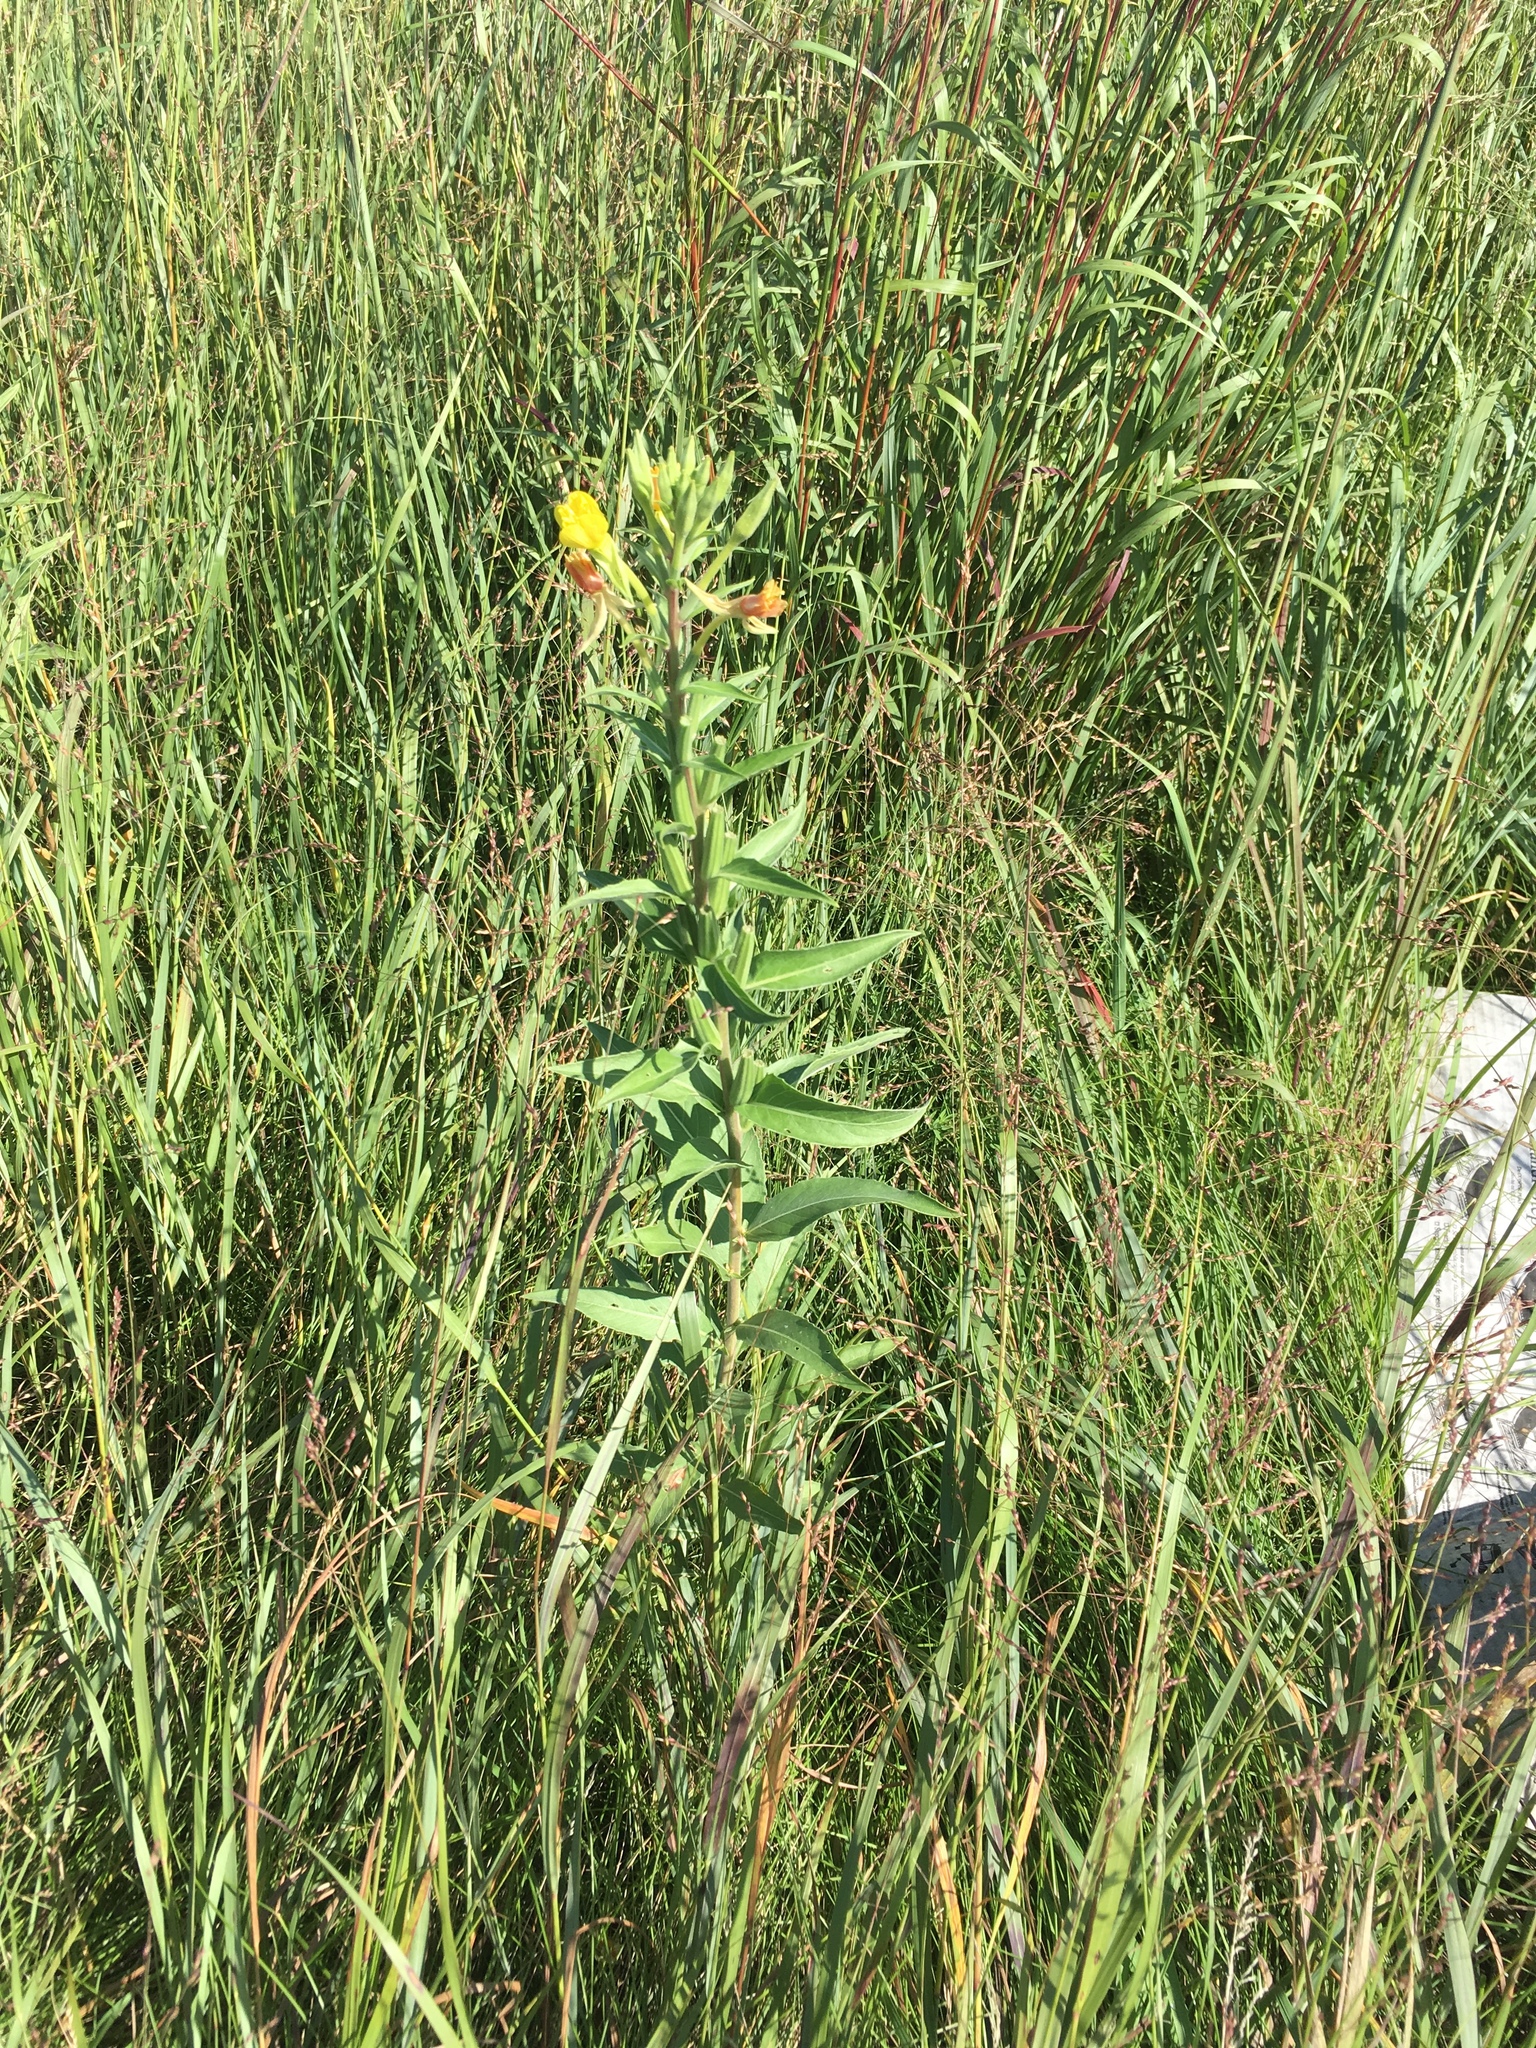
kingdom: Plantae
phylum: Tracheophyta
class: Magnoliopsida
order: Myrtales
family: Onagraceae
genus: Oenothera
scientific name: Oenothera biennis
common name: Common evening-primrose
